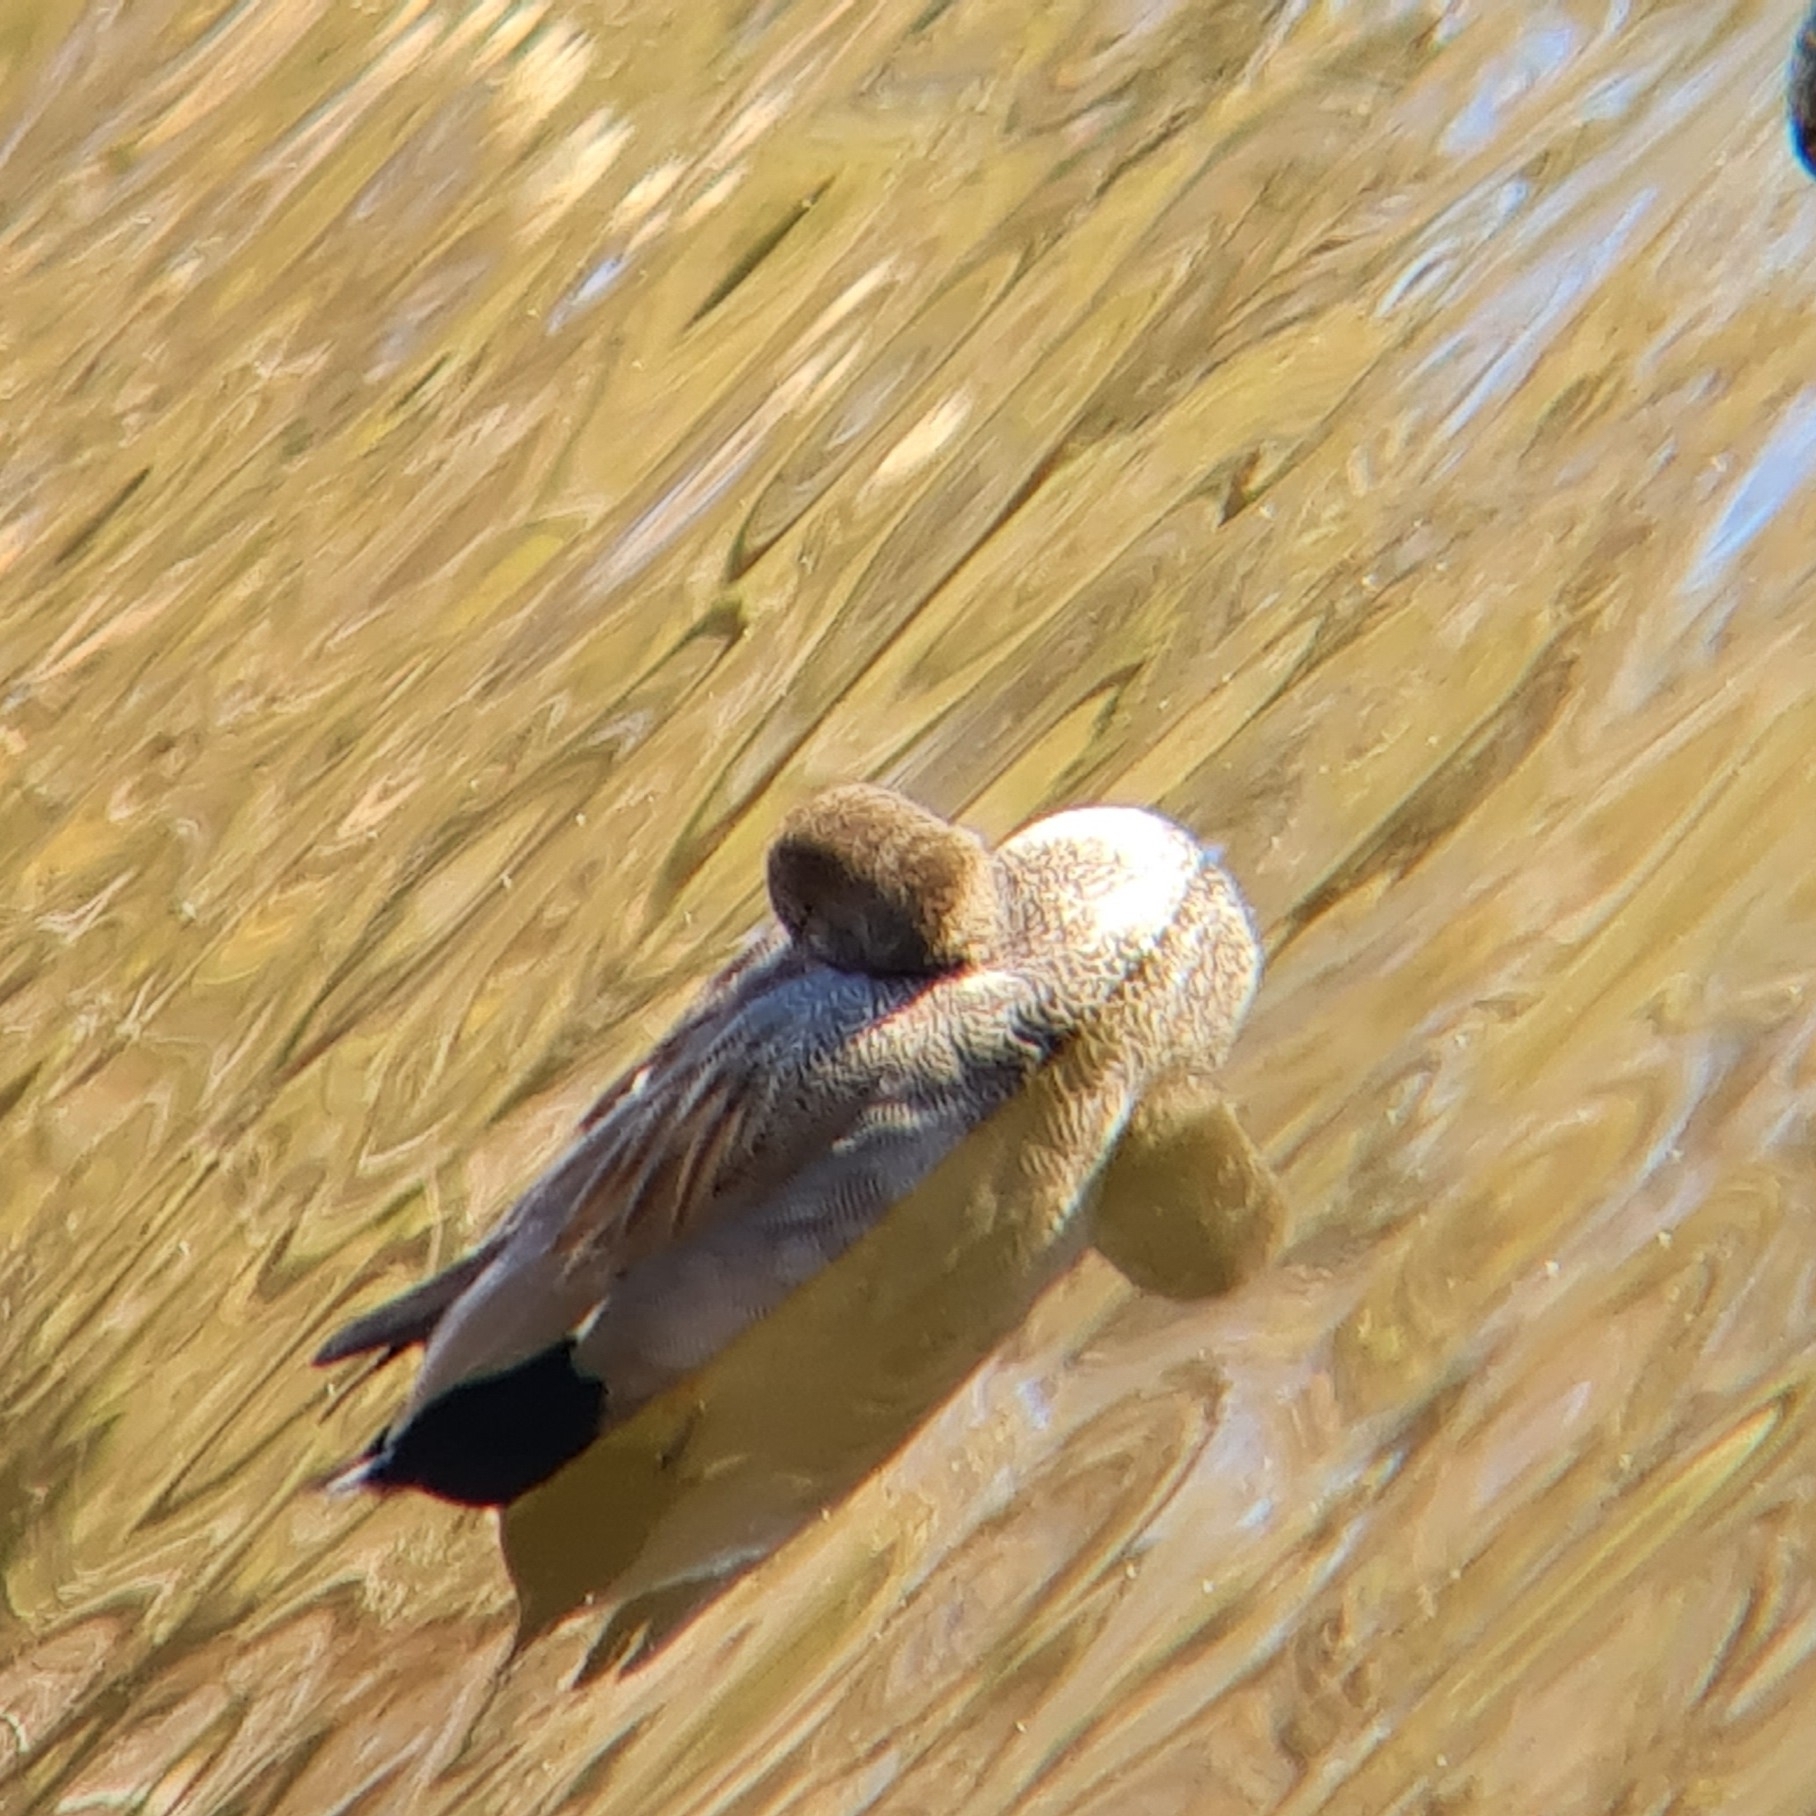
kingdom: Animalia
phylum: Chordata
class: Aves
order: Anseriformes
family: Anatidae
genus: Mareca
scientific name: Mareca strepera
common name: Gadwall
